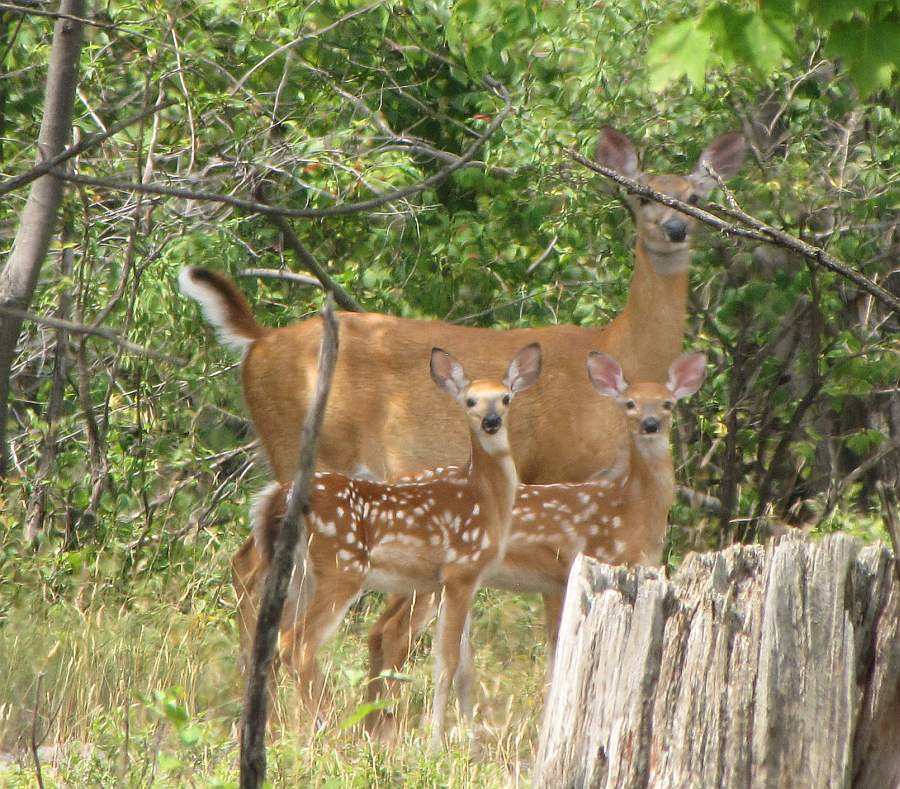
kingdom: Animalia
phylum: Chordata
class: Mammalia
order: Artiodactyla
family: Cervidae
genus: Odocoileus
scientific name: Odocoileus virginianus
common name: White-tailed deer
